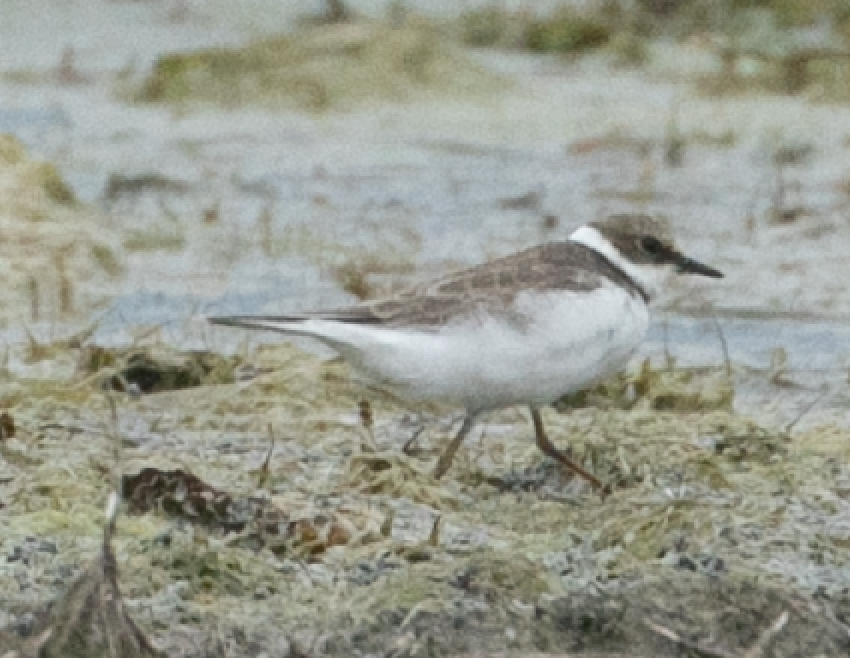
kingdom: Animalia
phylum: Chordata
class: Aves
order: Charadriiformes
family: Charadriidae
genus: Charadrius
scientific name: Charadrius dubius
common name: Little ringed plover
